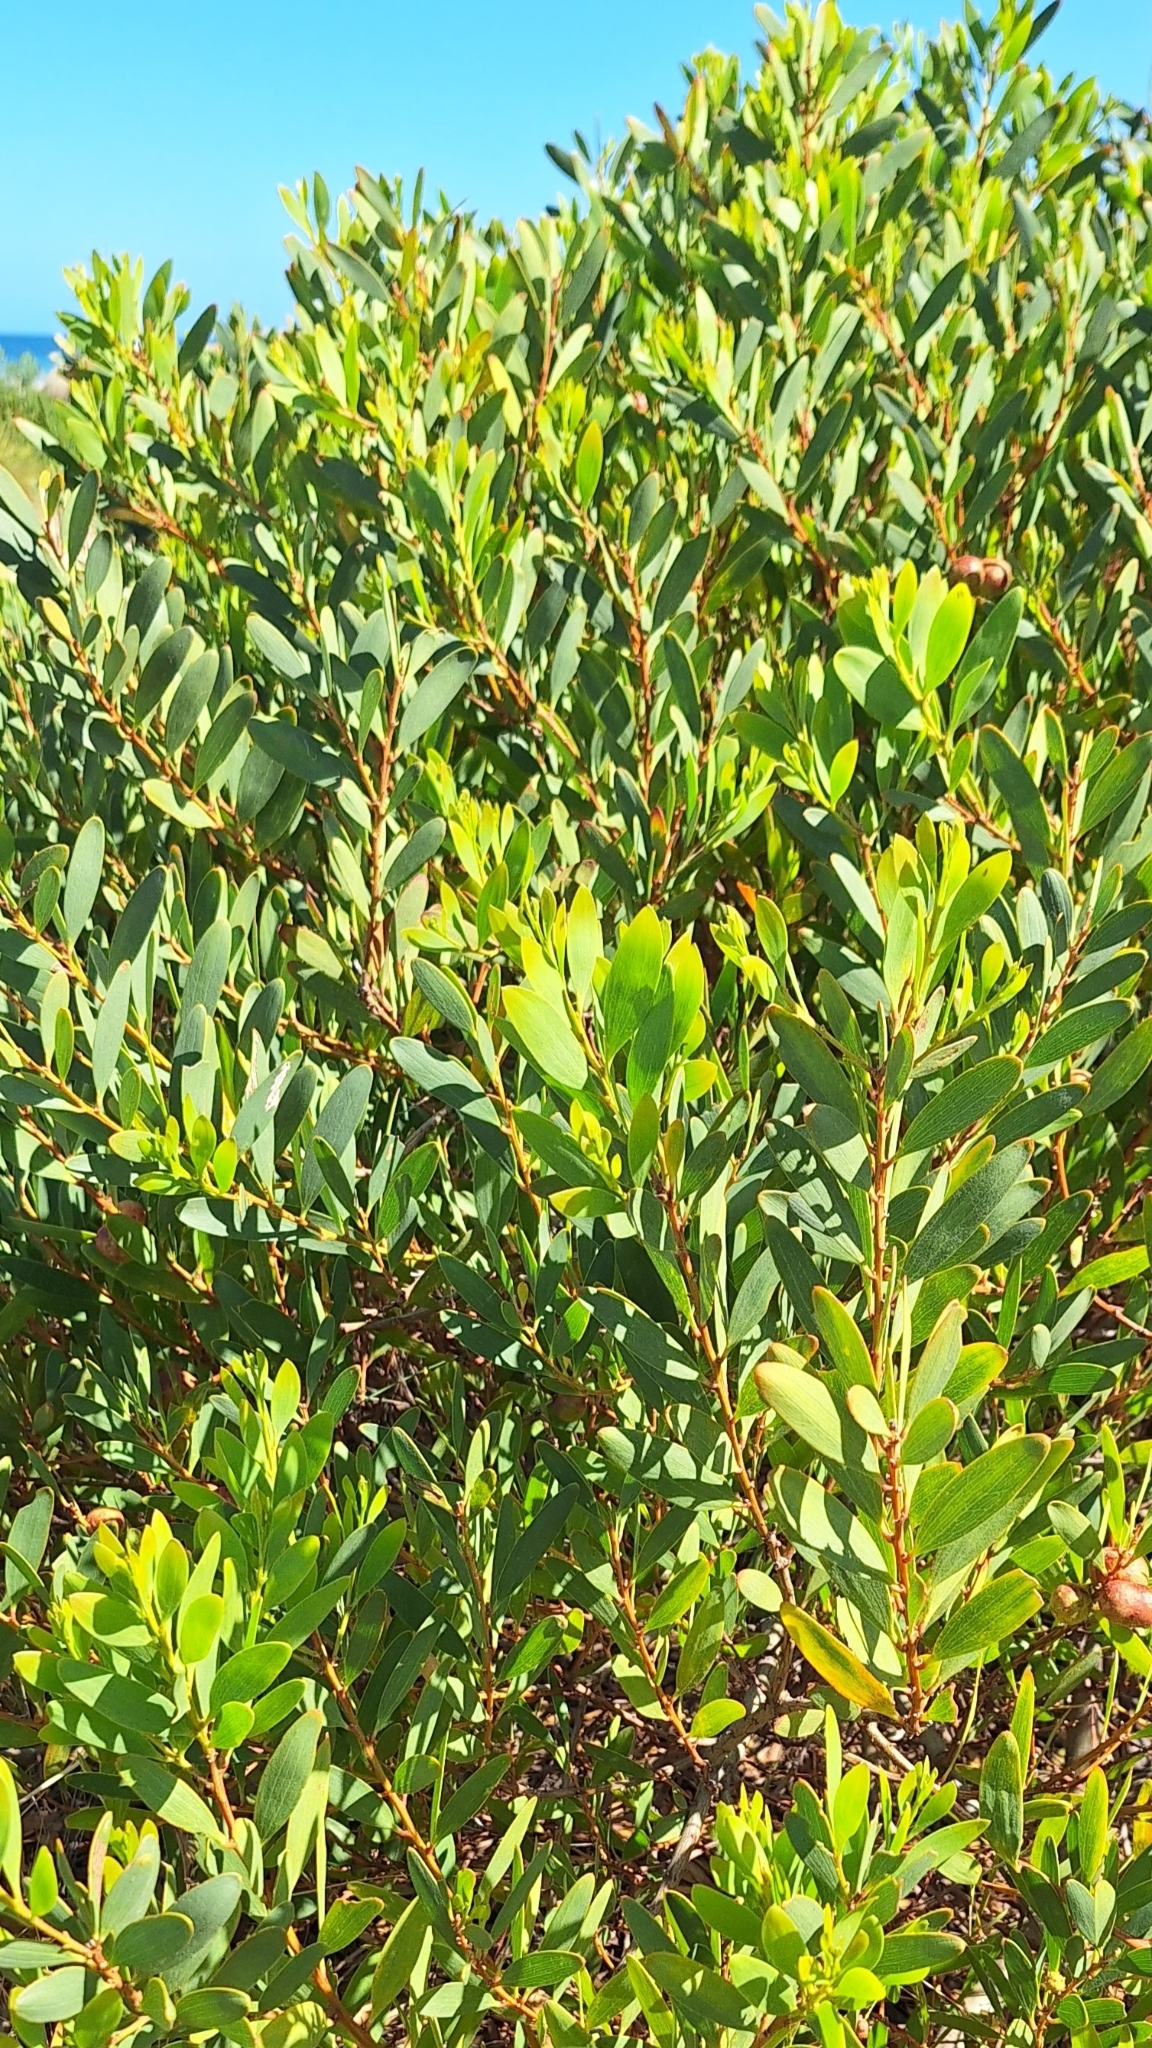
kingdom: Plantae
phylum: Tracheophyta
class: Magnoliopsida
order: Fabales
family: Fabaceae
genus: Acacia
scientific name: Acacia longifolia
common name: Sydney golden wattle
